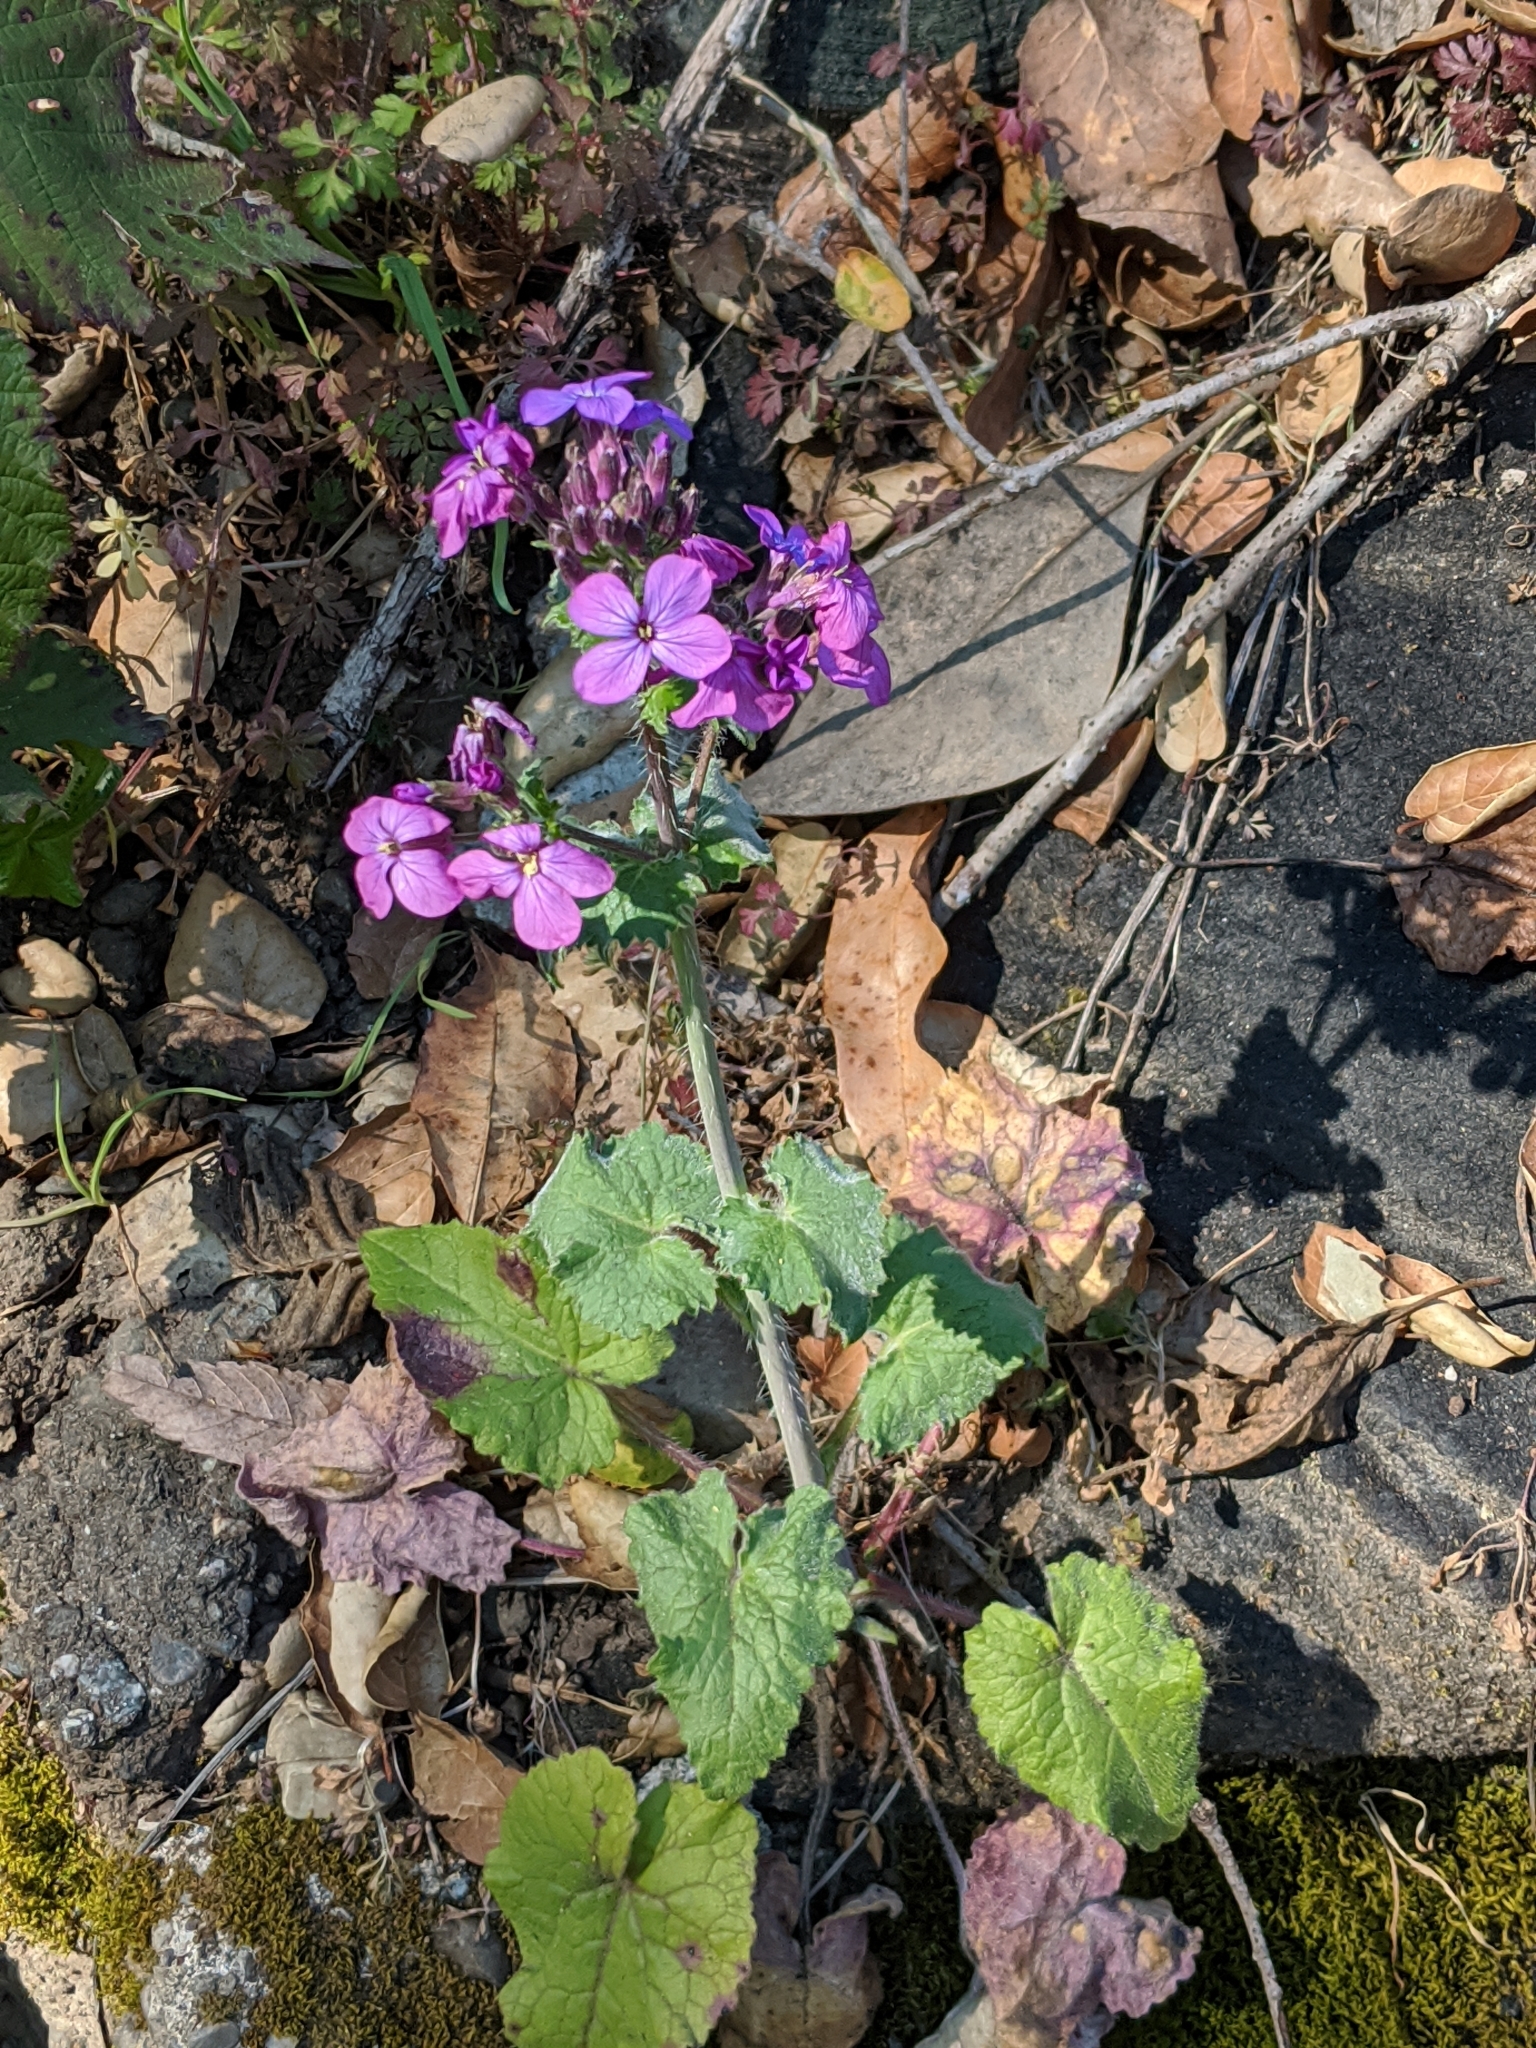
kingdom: Plantae
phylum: Tracheophyta
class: Magnoliopsida
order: Brassicales
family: Brassicaceae
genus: Lunaria
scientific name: Lunaria annua
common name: Honesty
